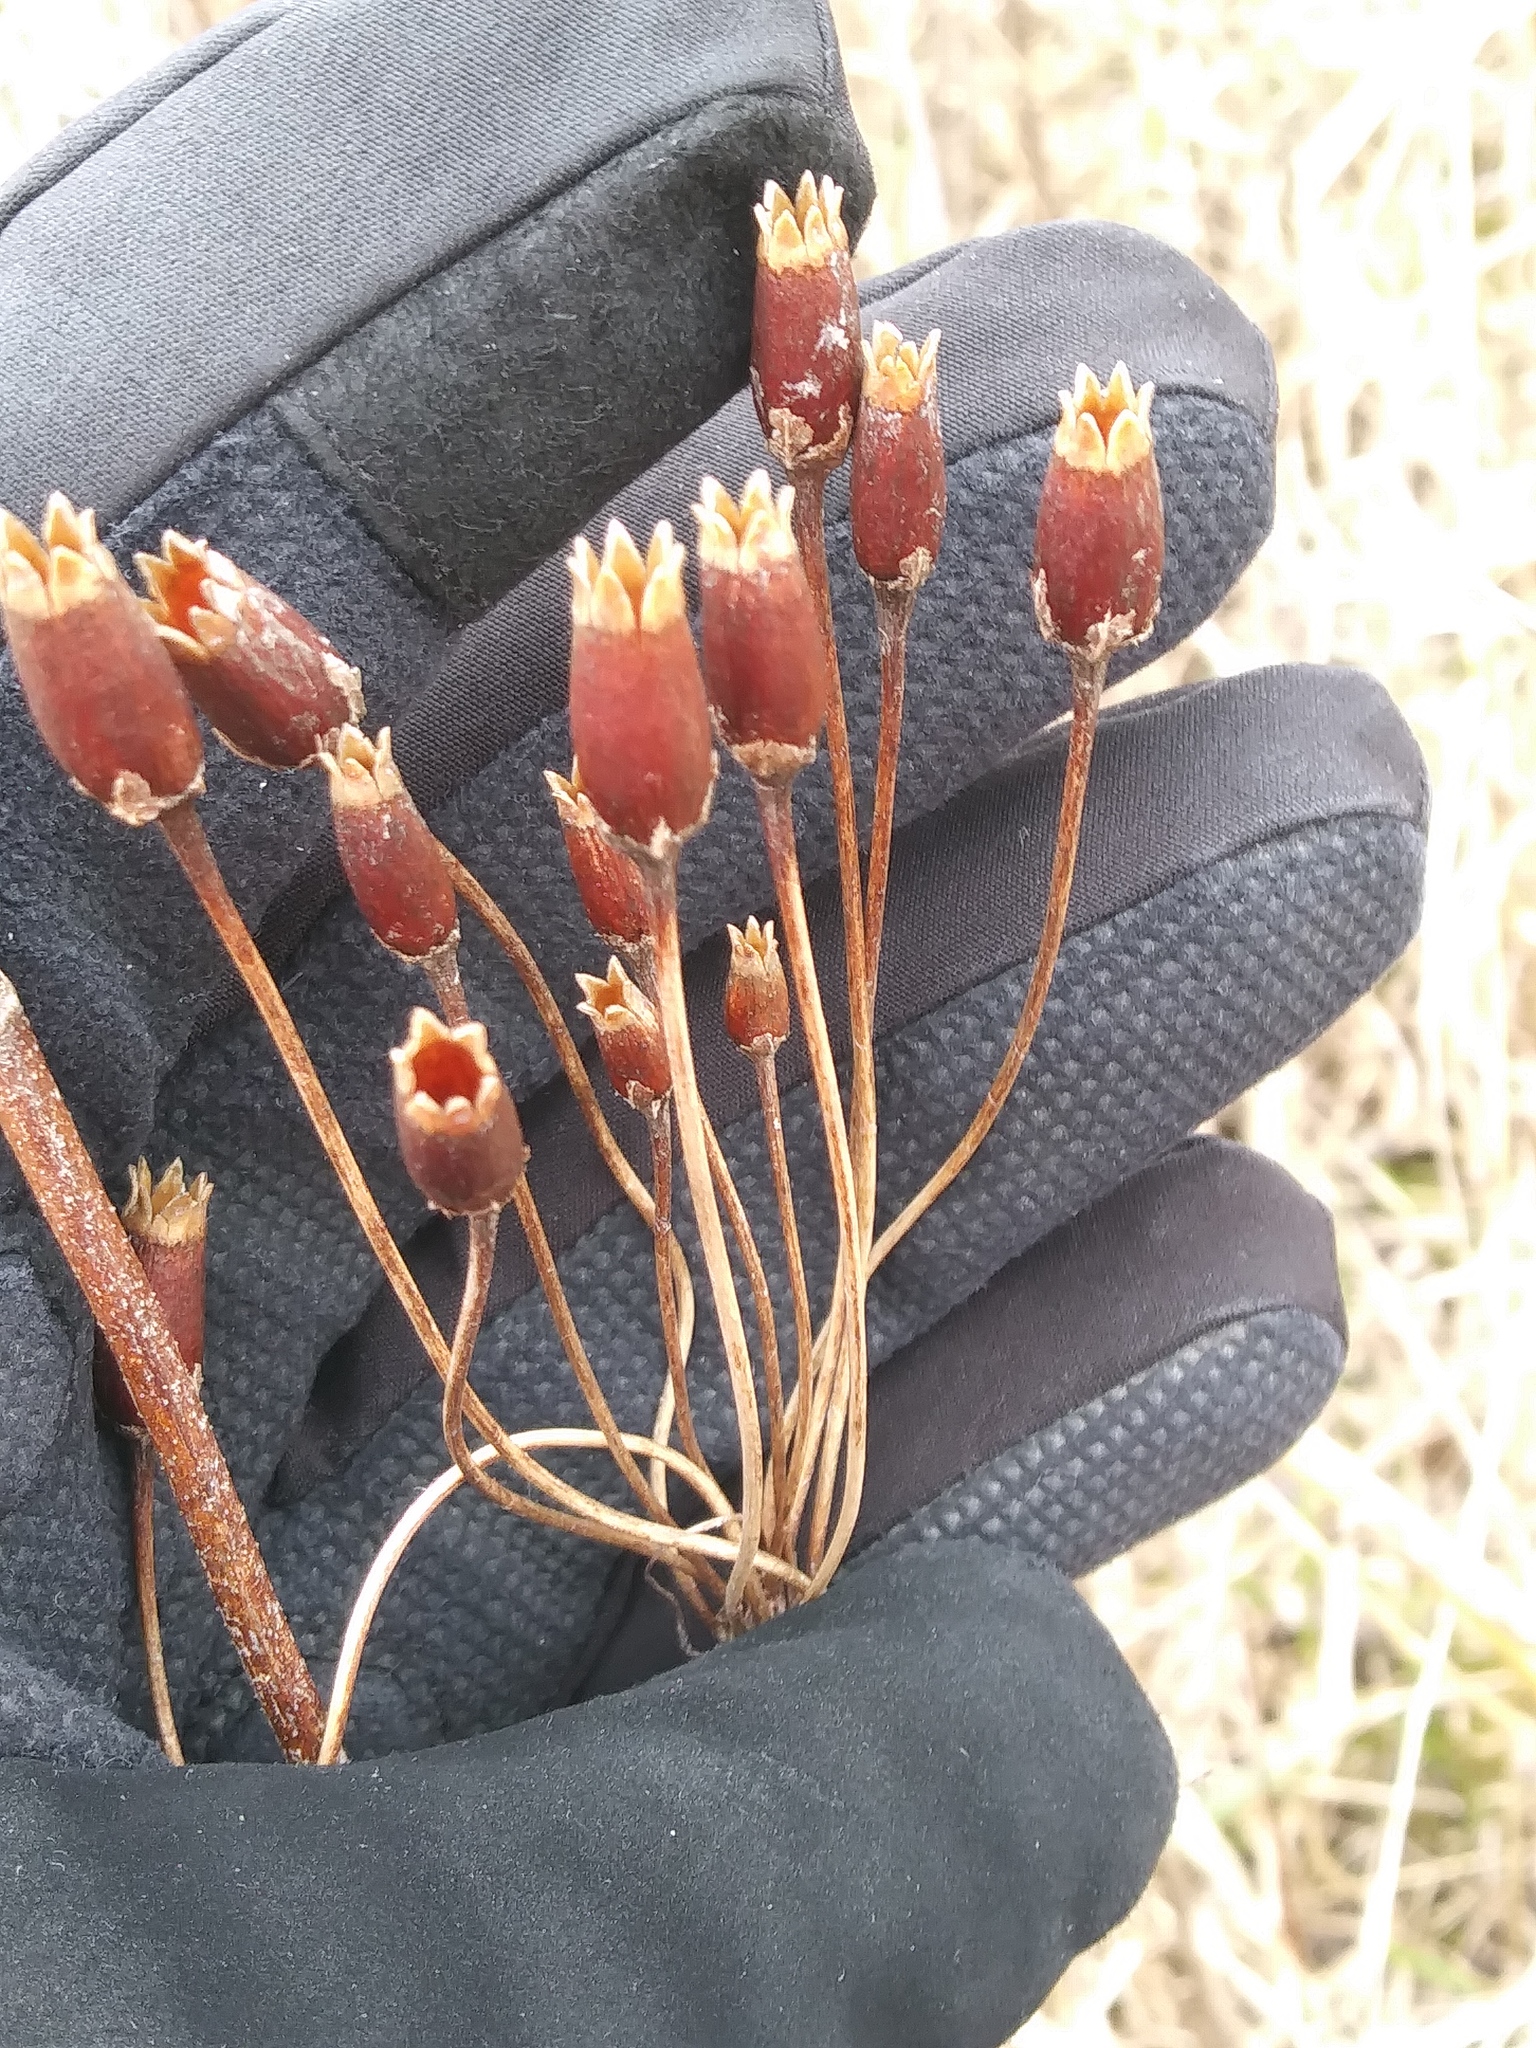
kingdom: Plantae
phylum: Tracheophyta
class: Magnoliopsida
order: Ericales
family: Primulaceae
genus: Dodecatheon
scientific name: Dodecatheon meadia
